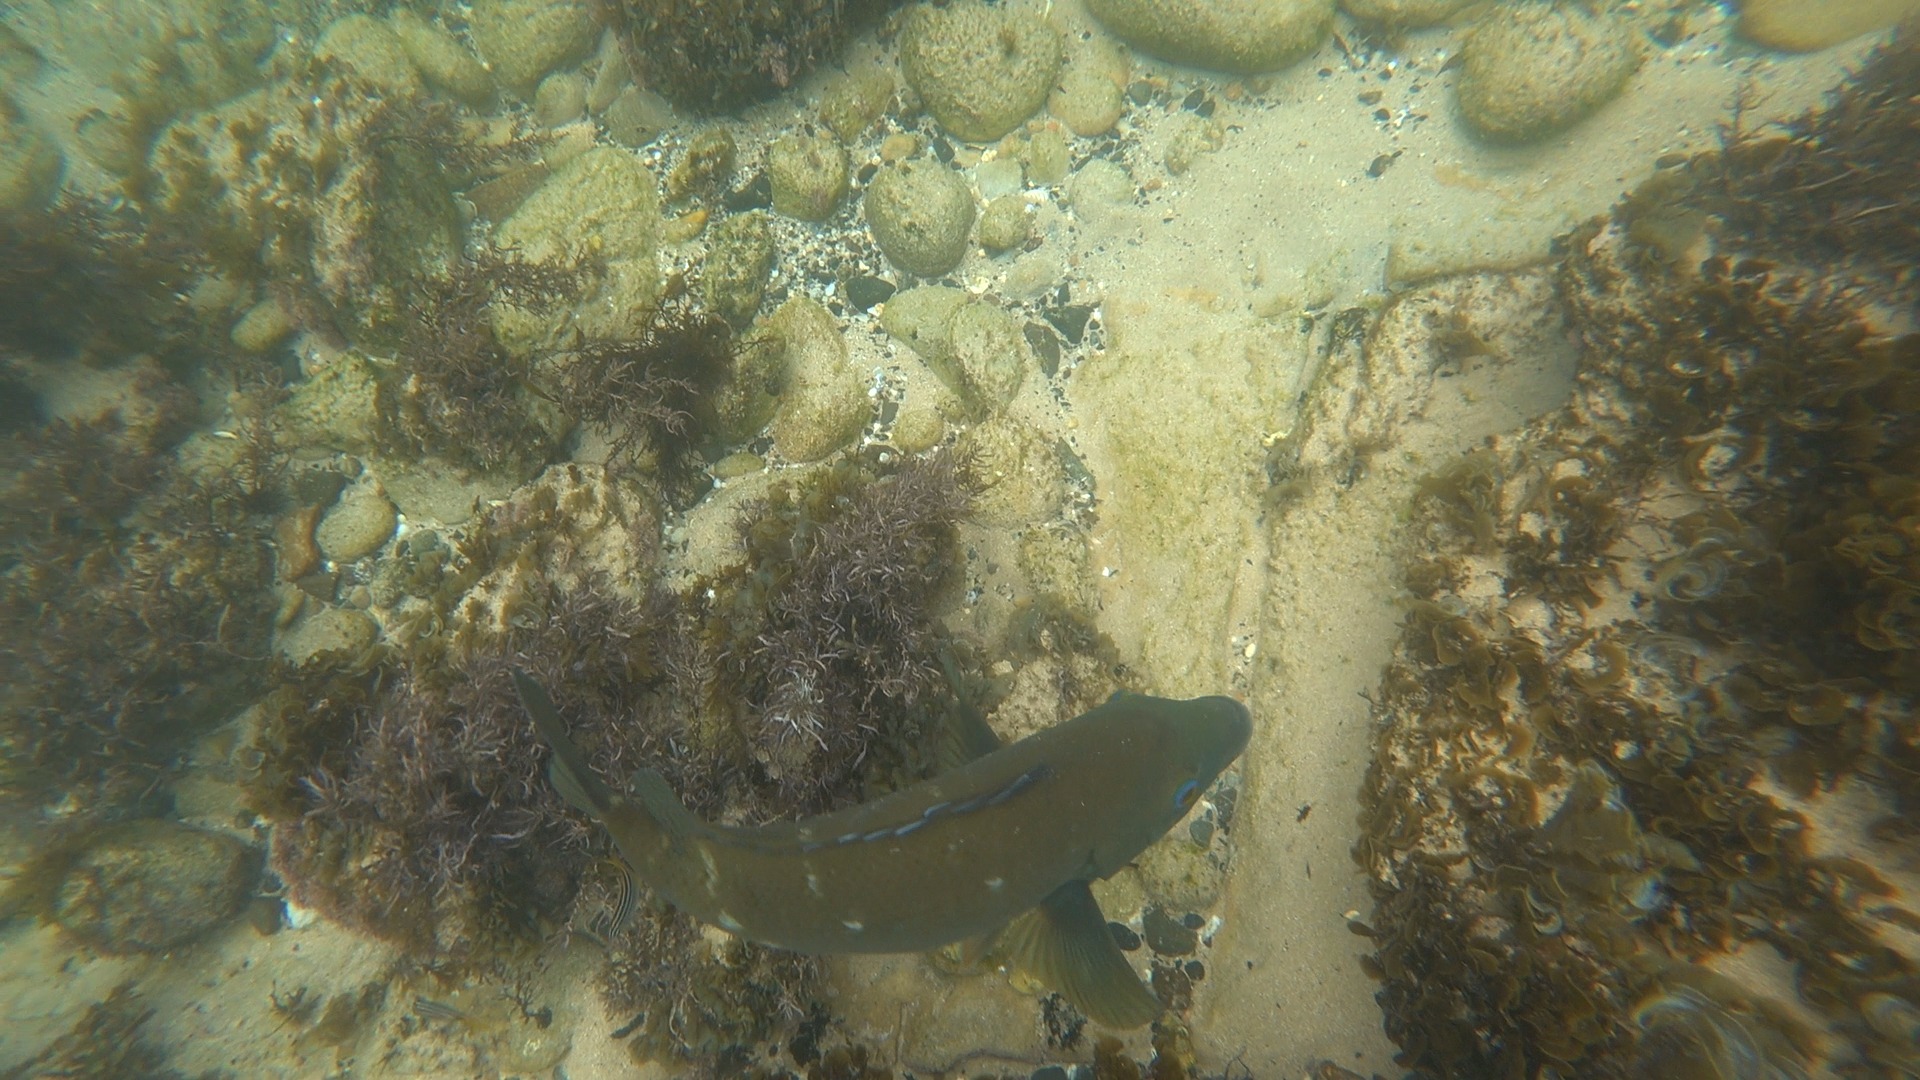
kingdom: Animalia
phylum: Chordata
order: Perciformes
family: Labridae
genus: Achoerodus
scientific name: Achoerodus viridis
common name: Brown groper
